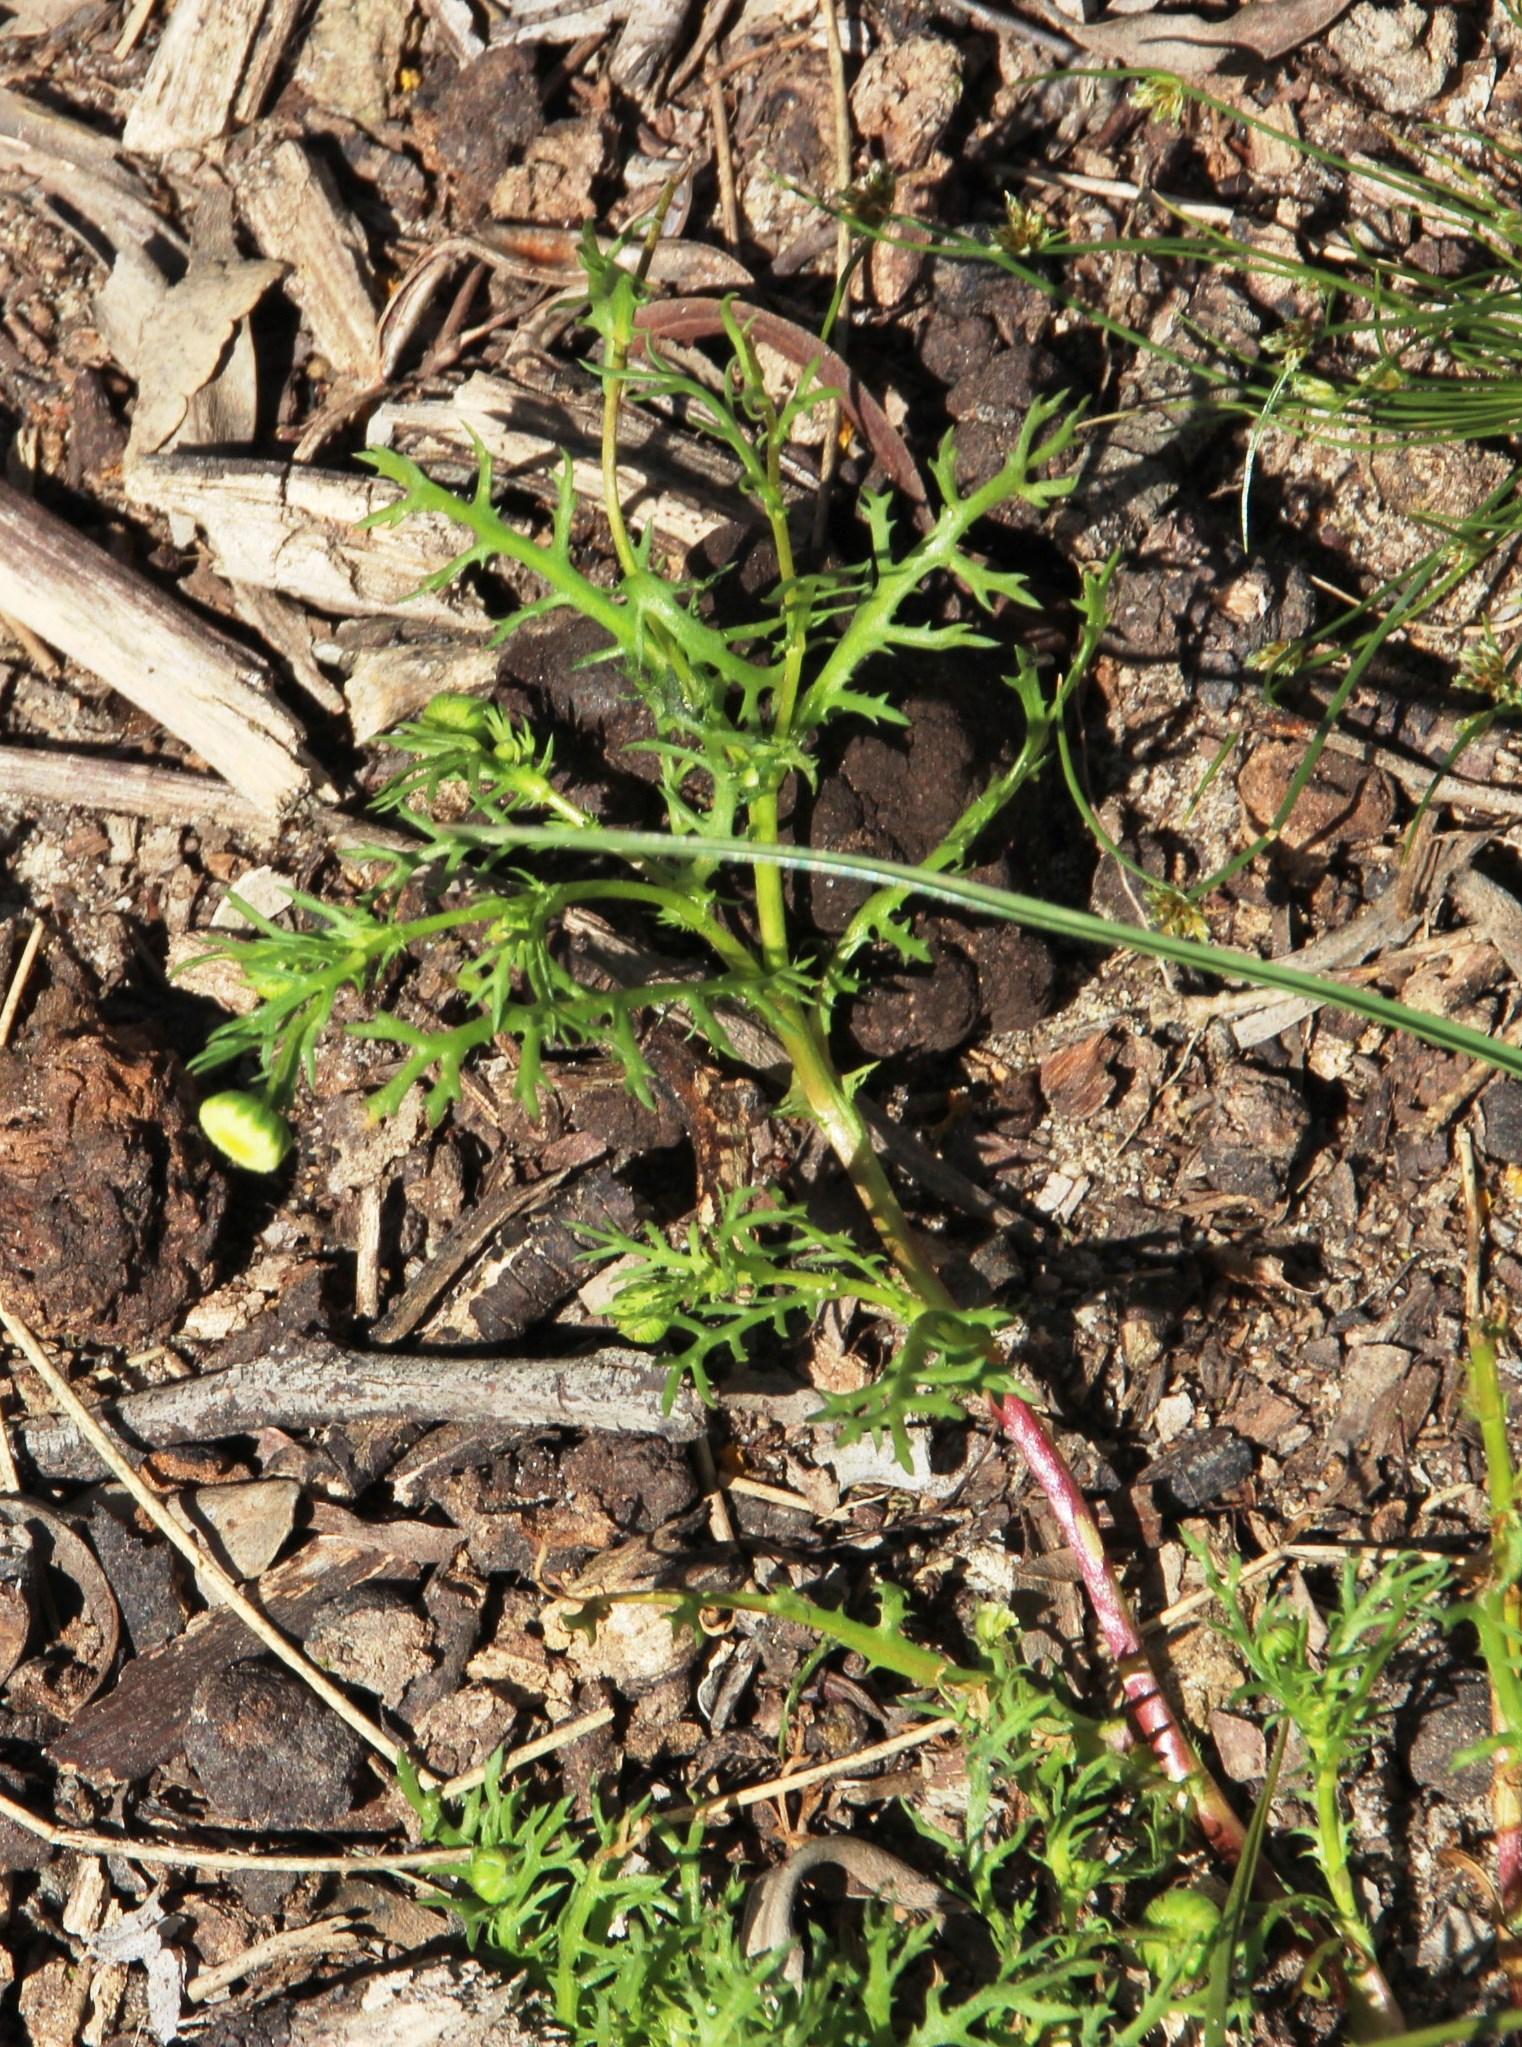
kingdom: Plantae
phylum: Tracheophyta
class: Magnoliopsida
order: Asterales
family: Asteraceae
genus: Cotula
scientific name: Cotula bipinnata
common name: Ferny buttonweed
